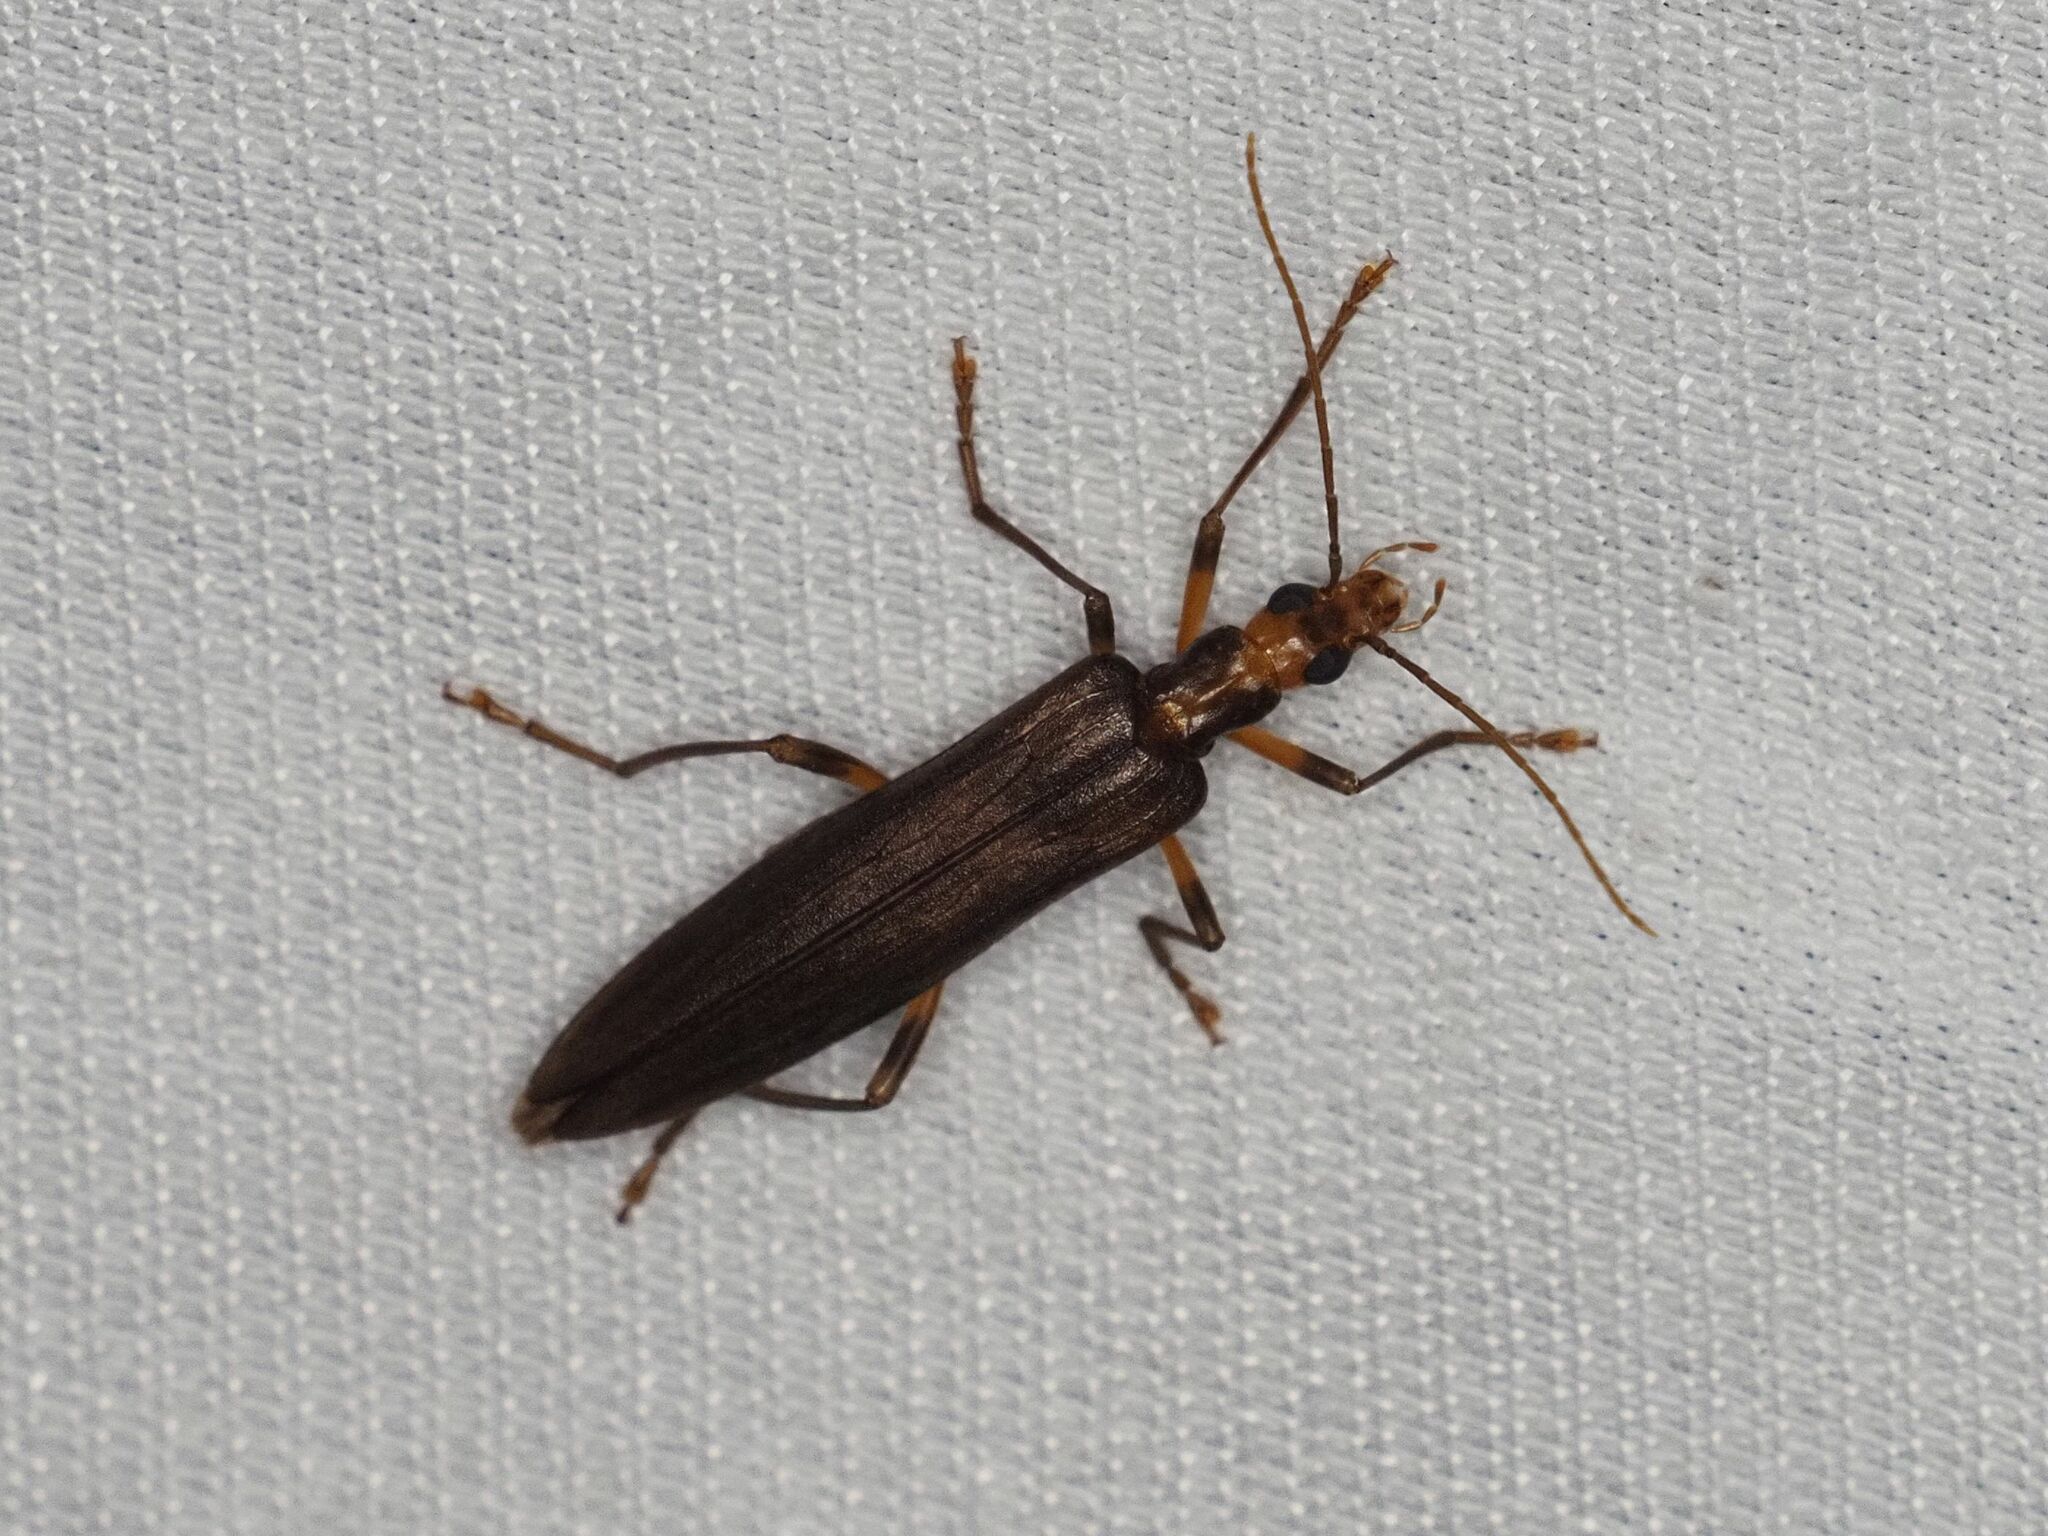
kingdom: Animalia
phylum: Arthropoda
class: Insecta
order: Coleoptera
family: Oedemeridae
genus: Oedemera
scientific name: Oedemera femoralis
